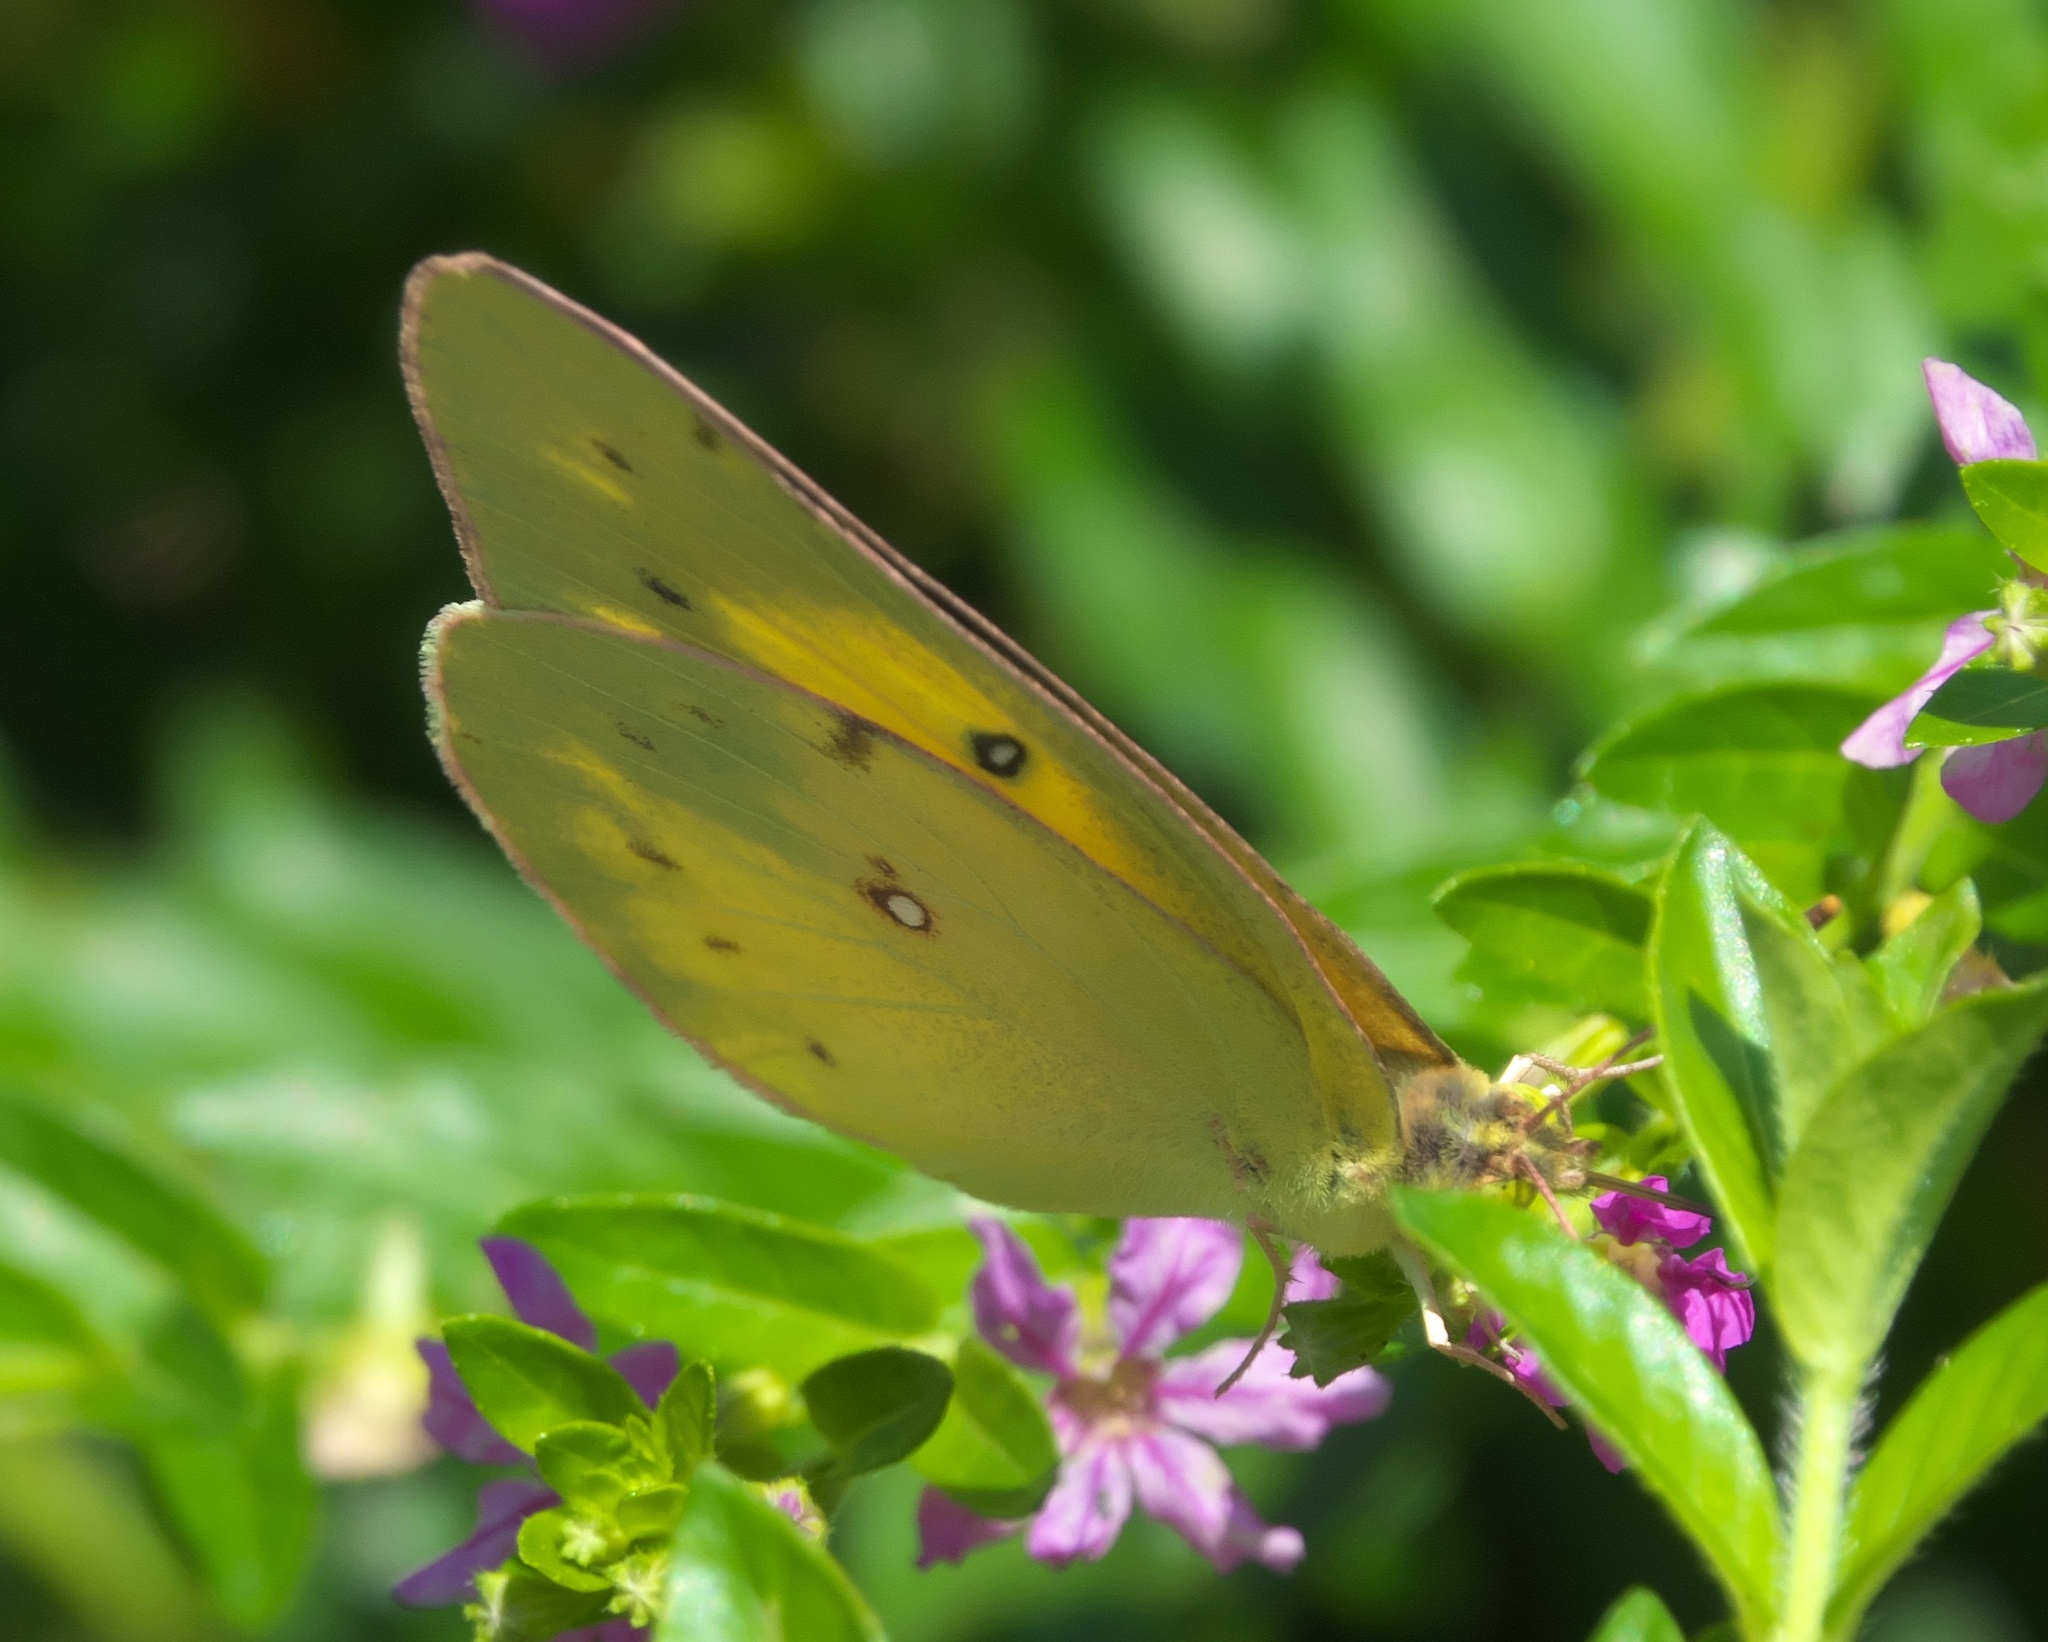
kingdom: Animalia
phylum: Arthropoda
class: Insecta
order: Lepidoptera
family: Pieridae
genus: Colias
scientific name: Colias eurytheme
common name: Alfalfa butterfly
